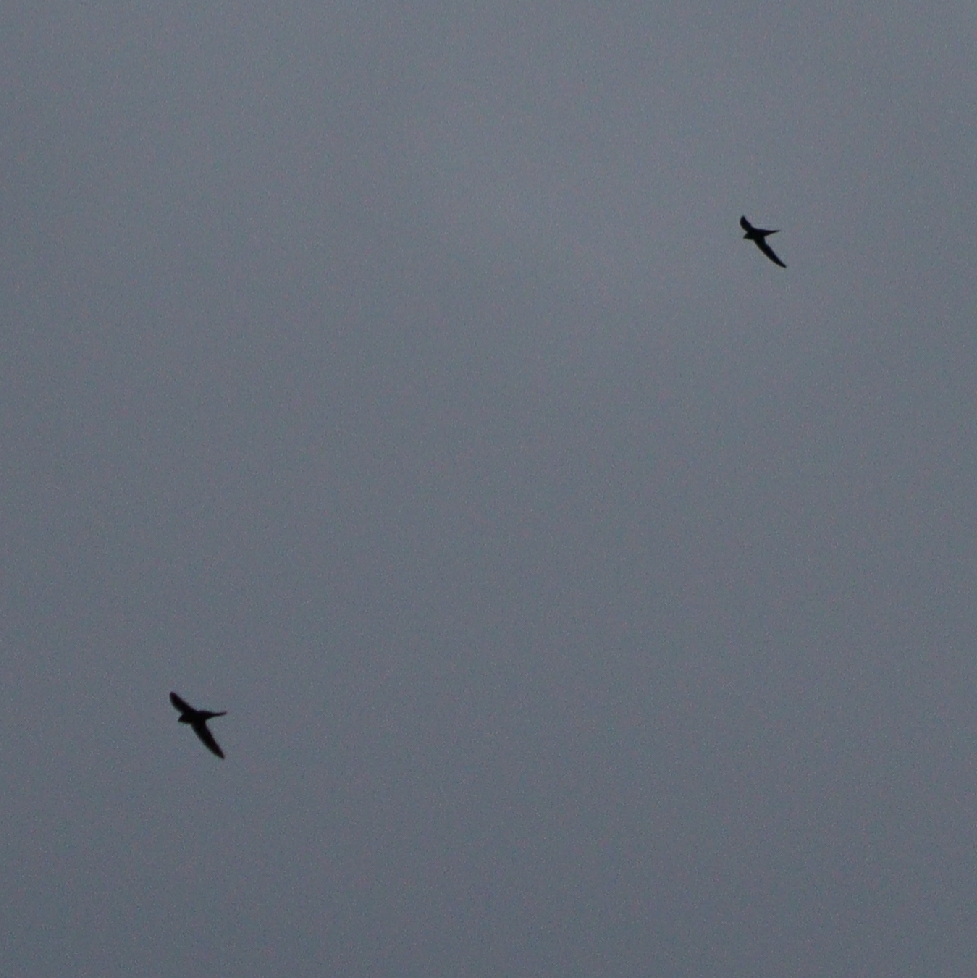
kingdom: Animalia
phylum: Chordata
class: Aves
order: Apodiformes
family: Apodidae
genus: Apus
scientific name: Apus apus
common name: Common swift
